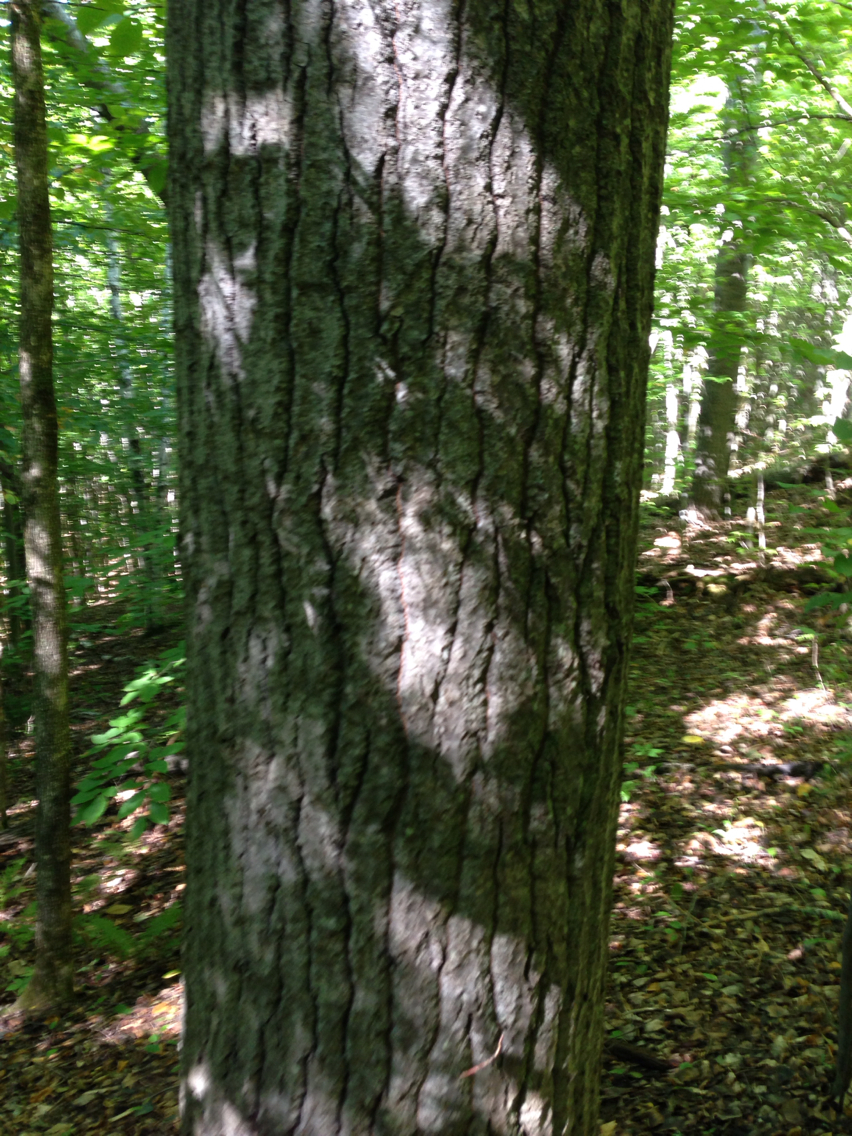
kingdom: Plantae
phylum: Tracheophyta
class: Magnoliopsida
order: Malpighiales
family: Salicaceae
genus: Populus
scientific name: Populus grandidentata
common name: Bigtooth aspen
